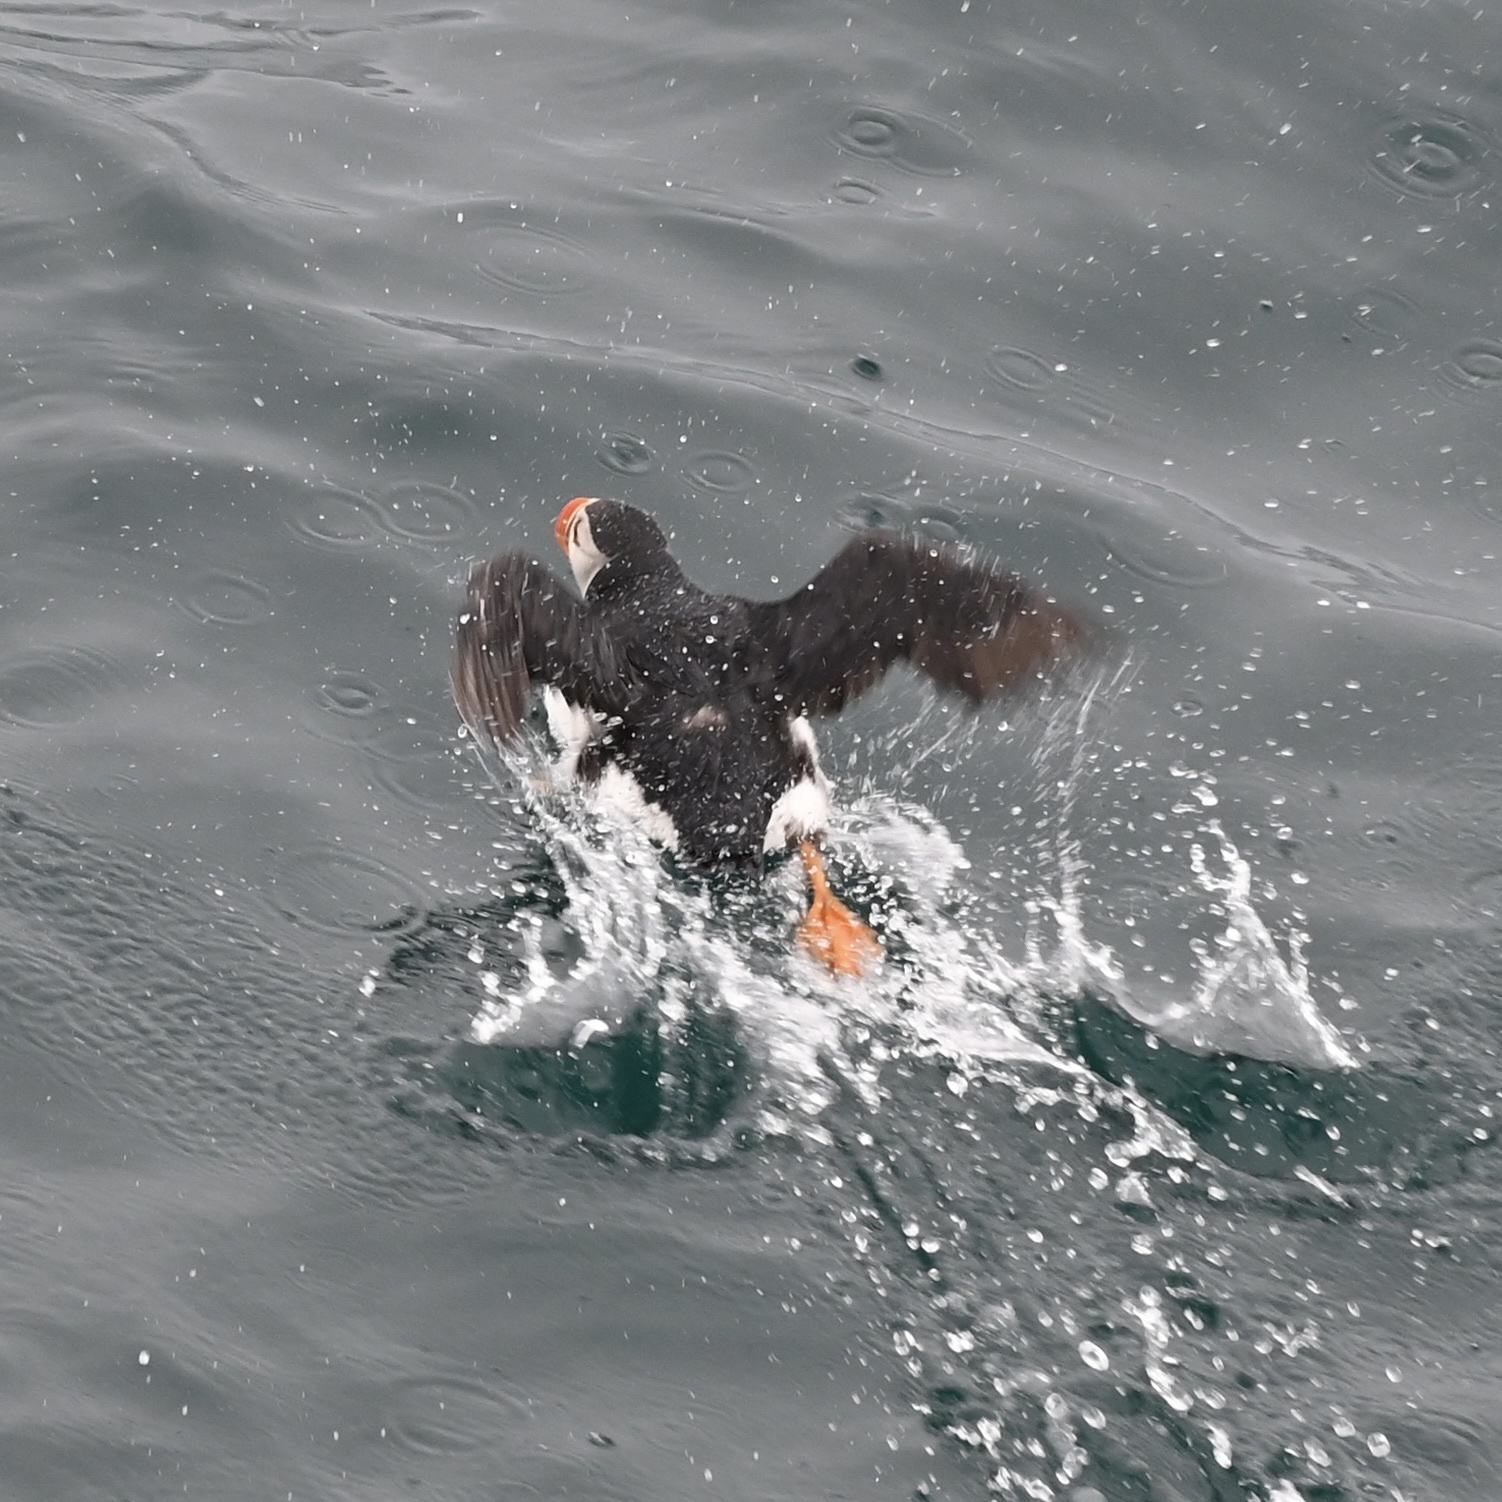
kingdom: Animalia
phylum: Chordata
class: Aves
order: Charadriiformes
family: Alcidae
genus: Fratercula
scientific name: Fratercula arctica
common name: Atlantic puffin
